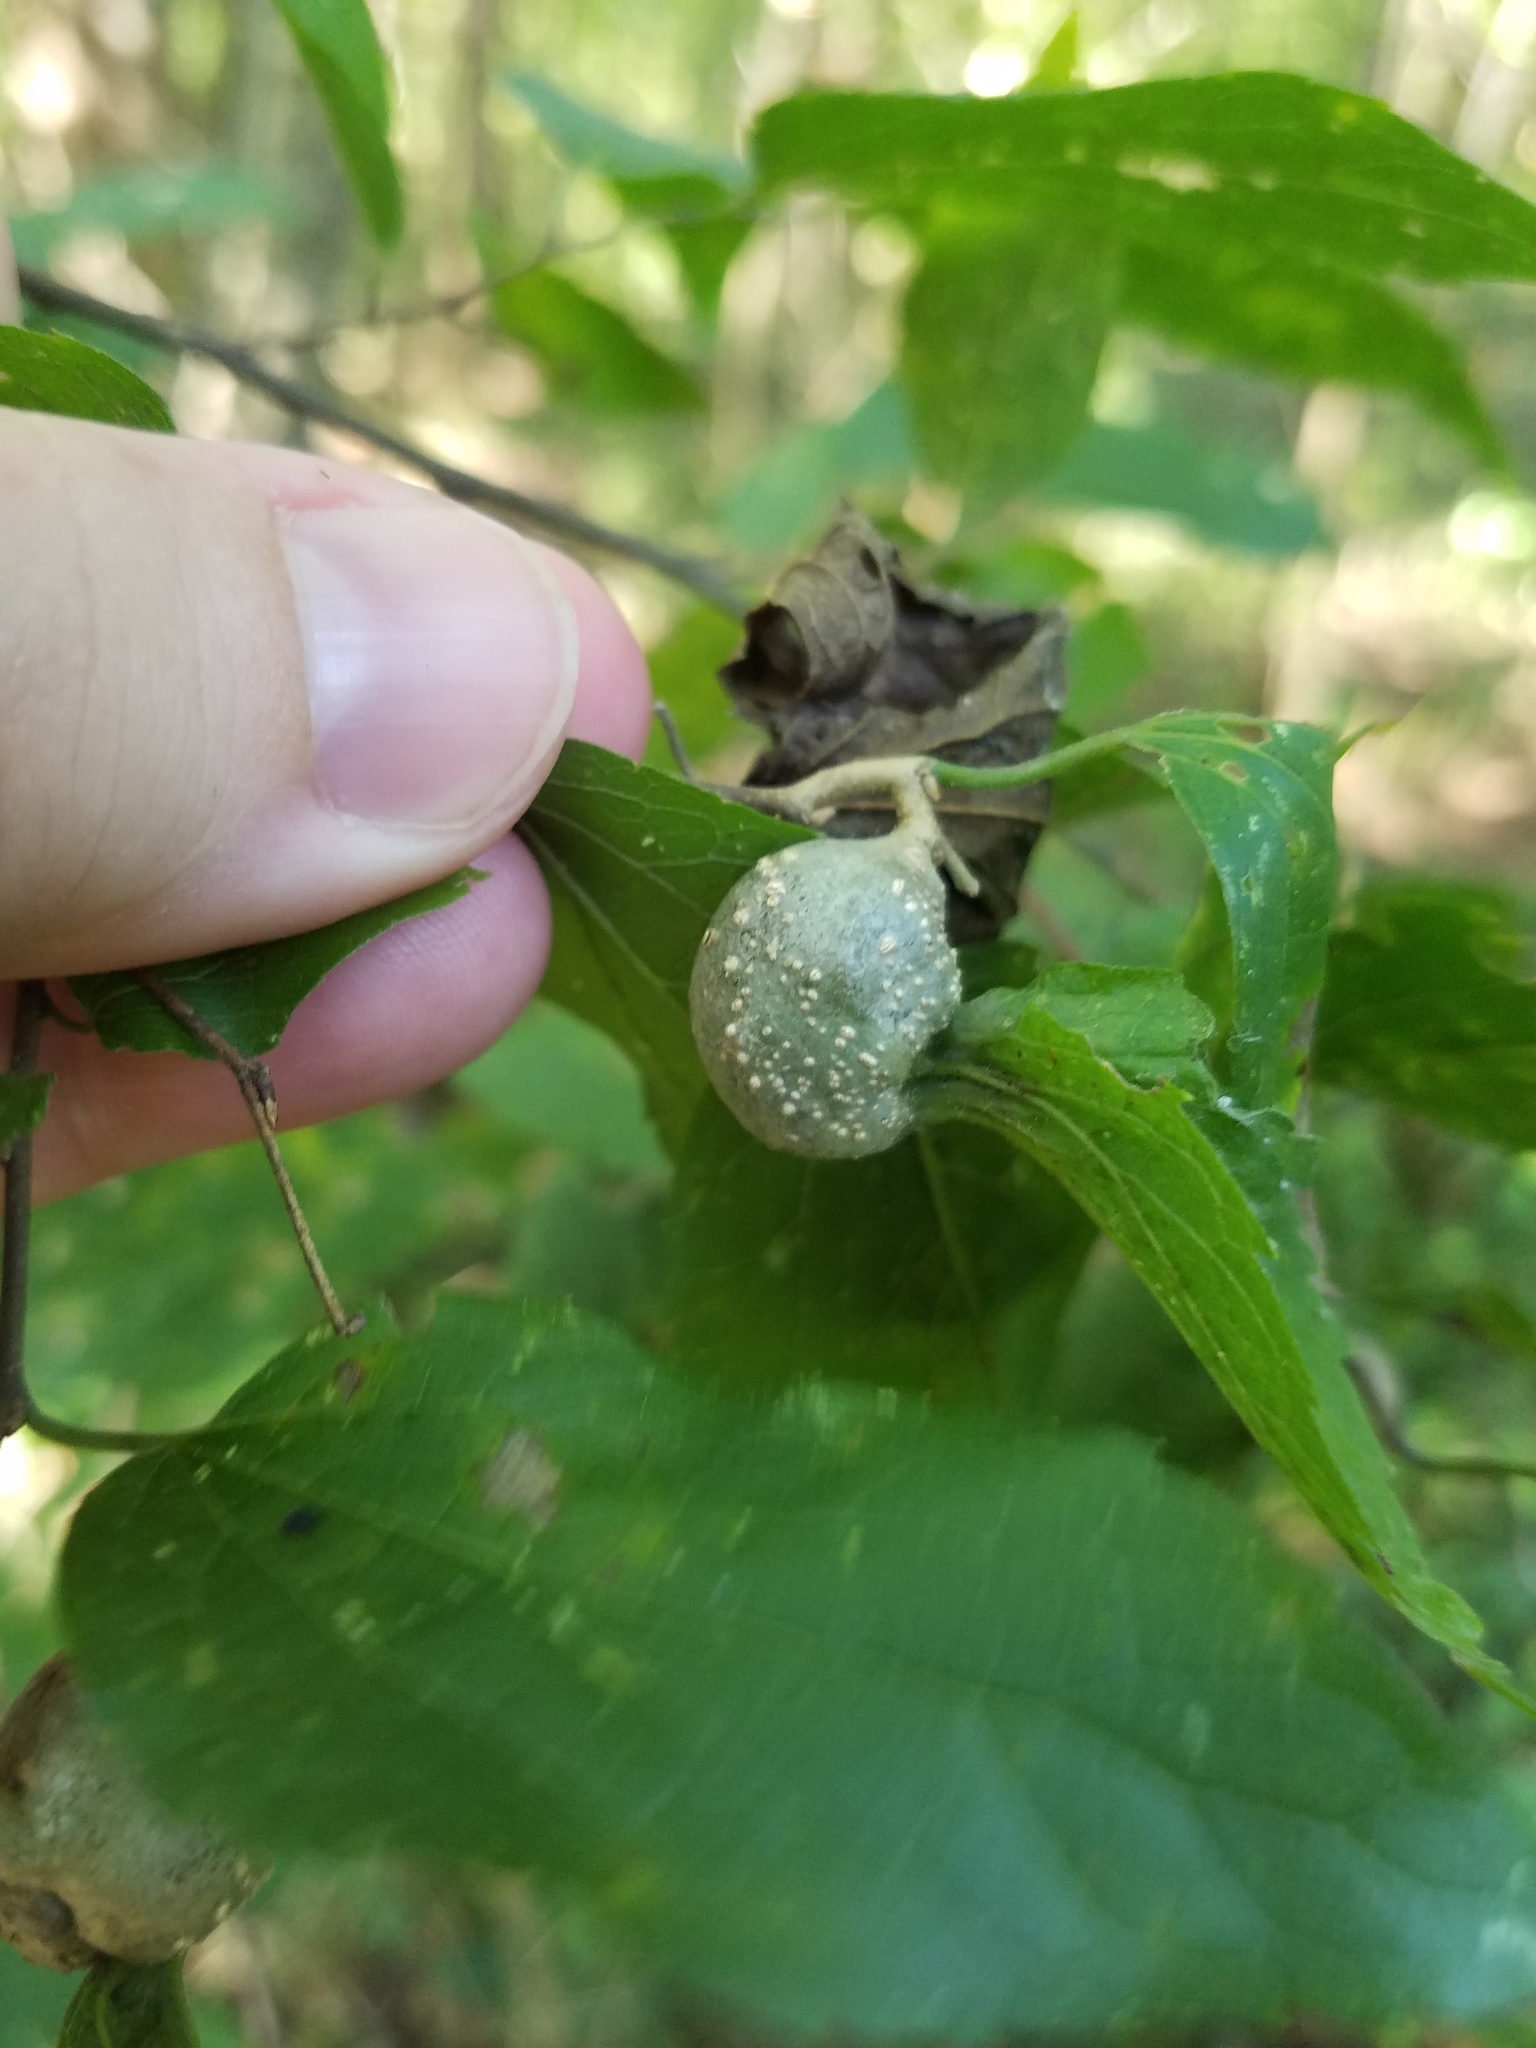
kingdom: Animalia
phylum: Arthropoda
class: Insecta
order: Hemiptera
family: Aphalaridae
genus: Pachypsylla
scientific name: Pachypsylla venusta
